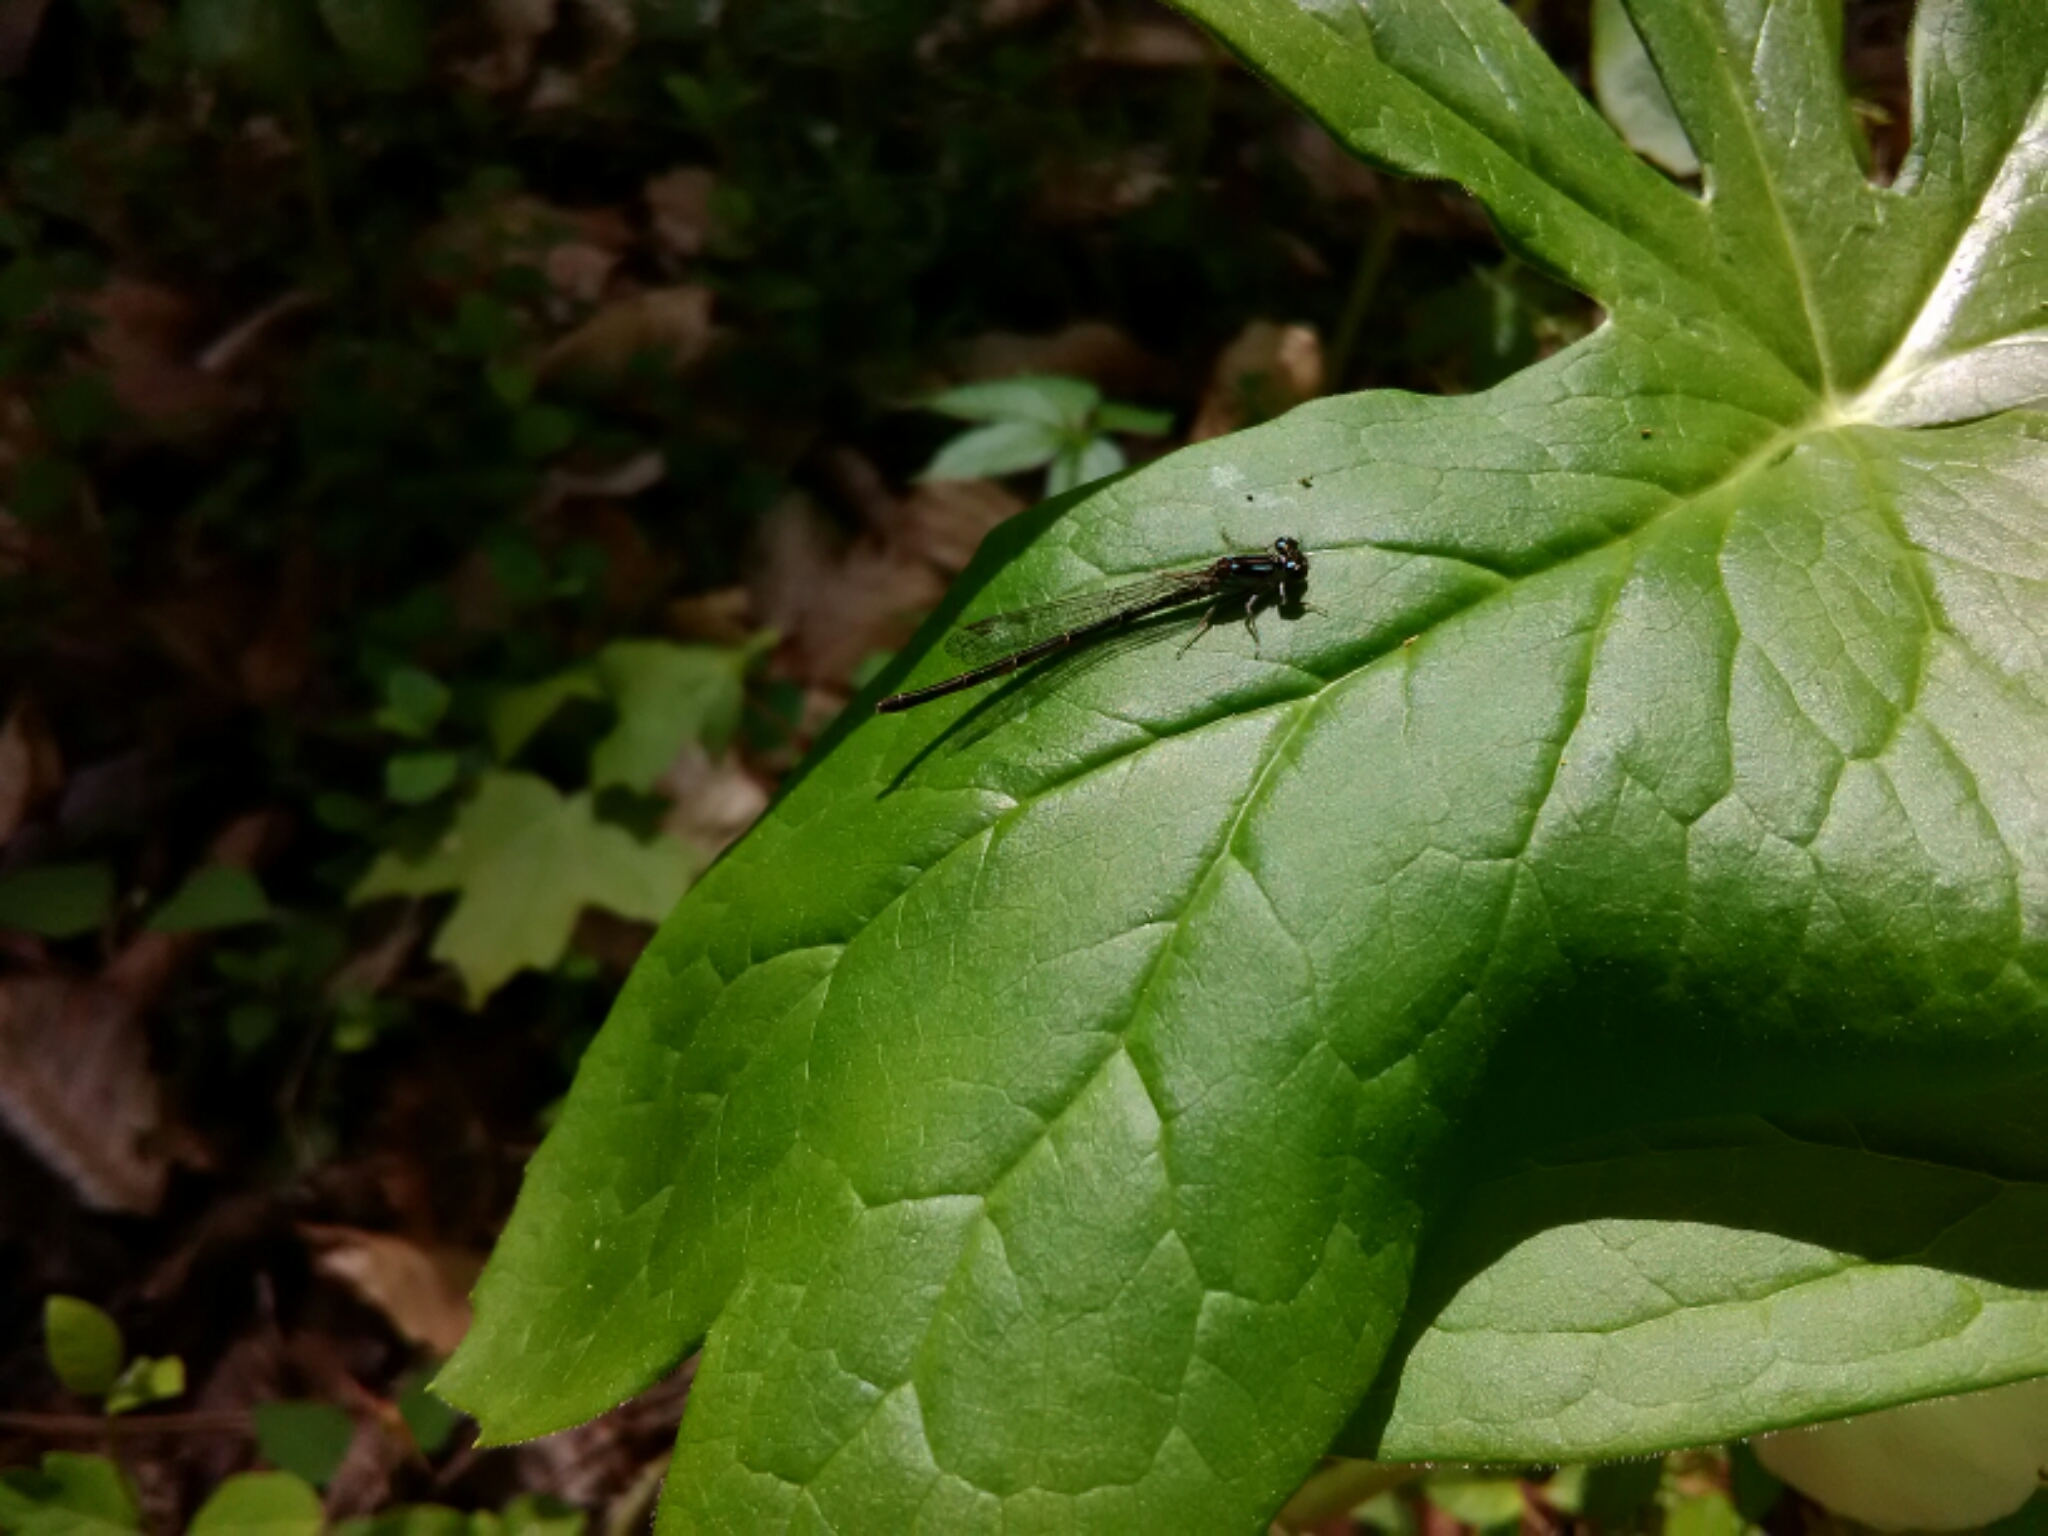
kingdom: Animalia
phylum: Arthropoda
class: Insecta
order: Odonata
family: Coenagrionidae
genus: Ischnura
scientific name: Ischnura posita
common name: Fragile forktail
